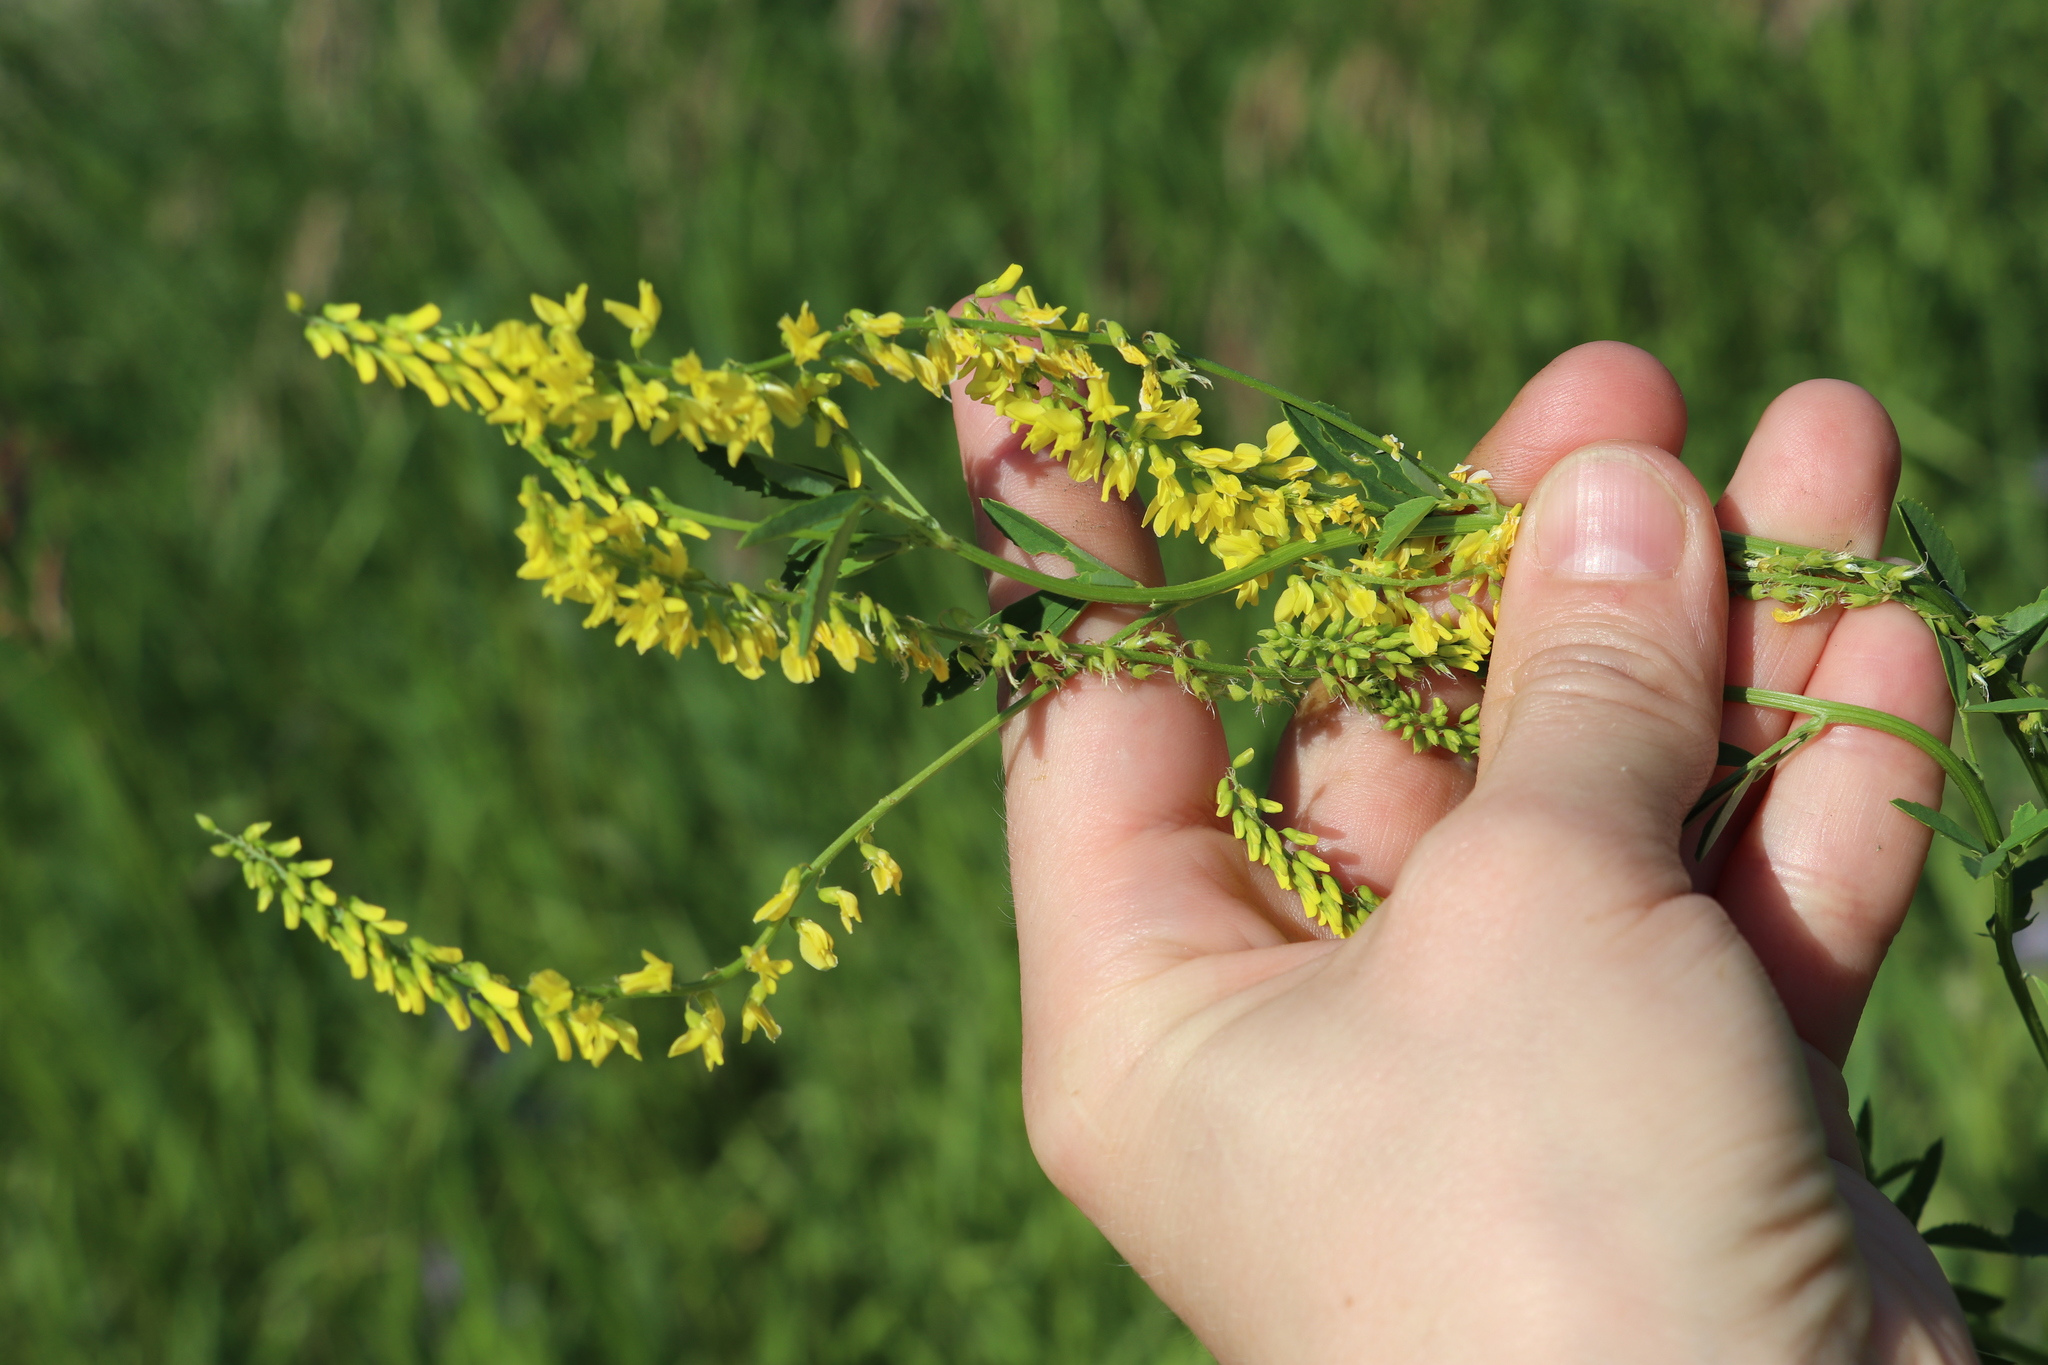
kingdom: Plantae
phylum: Tracheophyta
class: Magnoliopsida
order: Fabales
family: Fabaceae
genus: Melilotus
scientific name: Melilotus officinalis
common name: Sweetclover
